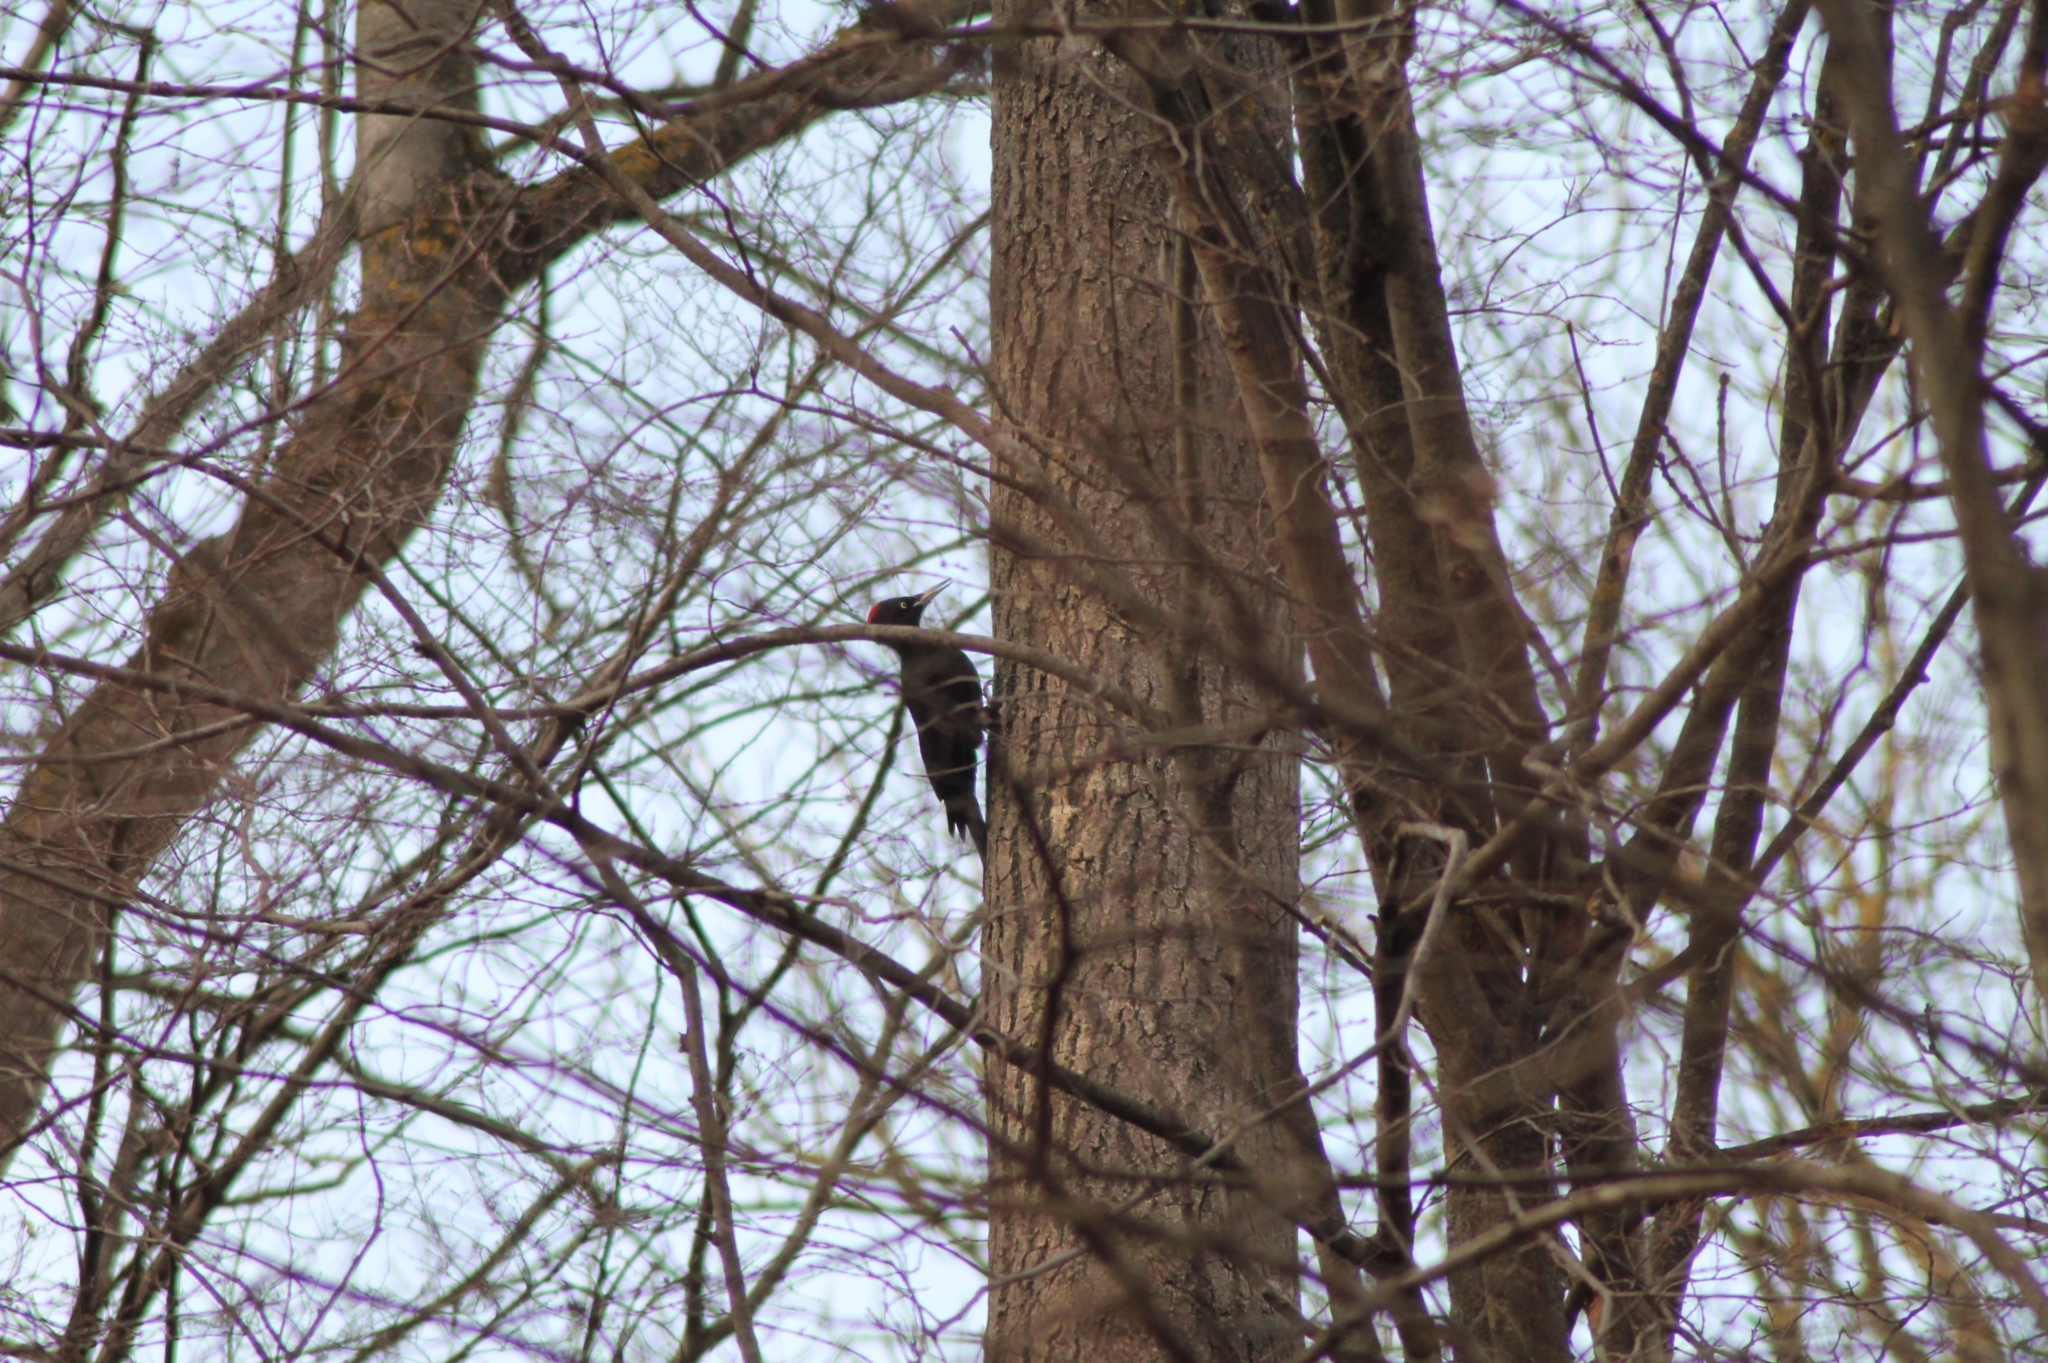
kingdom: Animalia
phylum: Chordata
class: Aves
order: Piciformes
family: Picidae
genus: Dryocopus
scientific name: Dryocopus martius
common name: Black woodpecker
